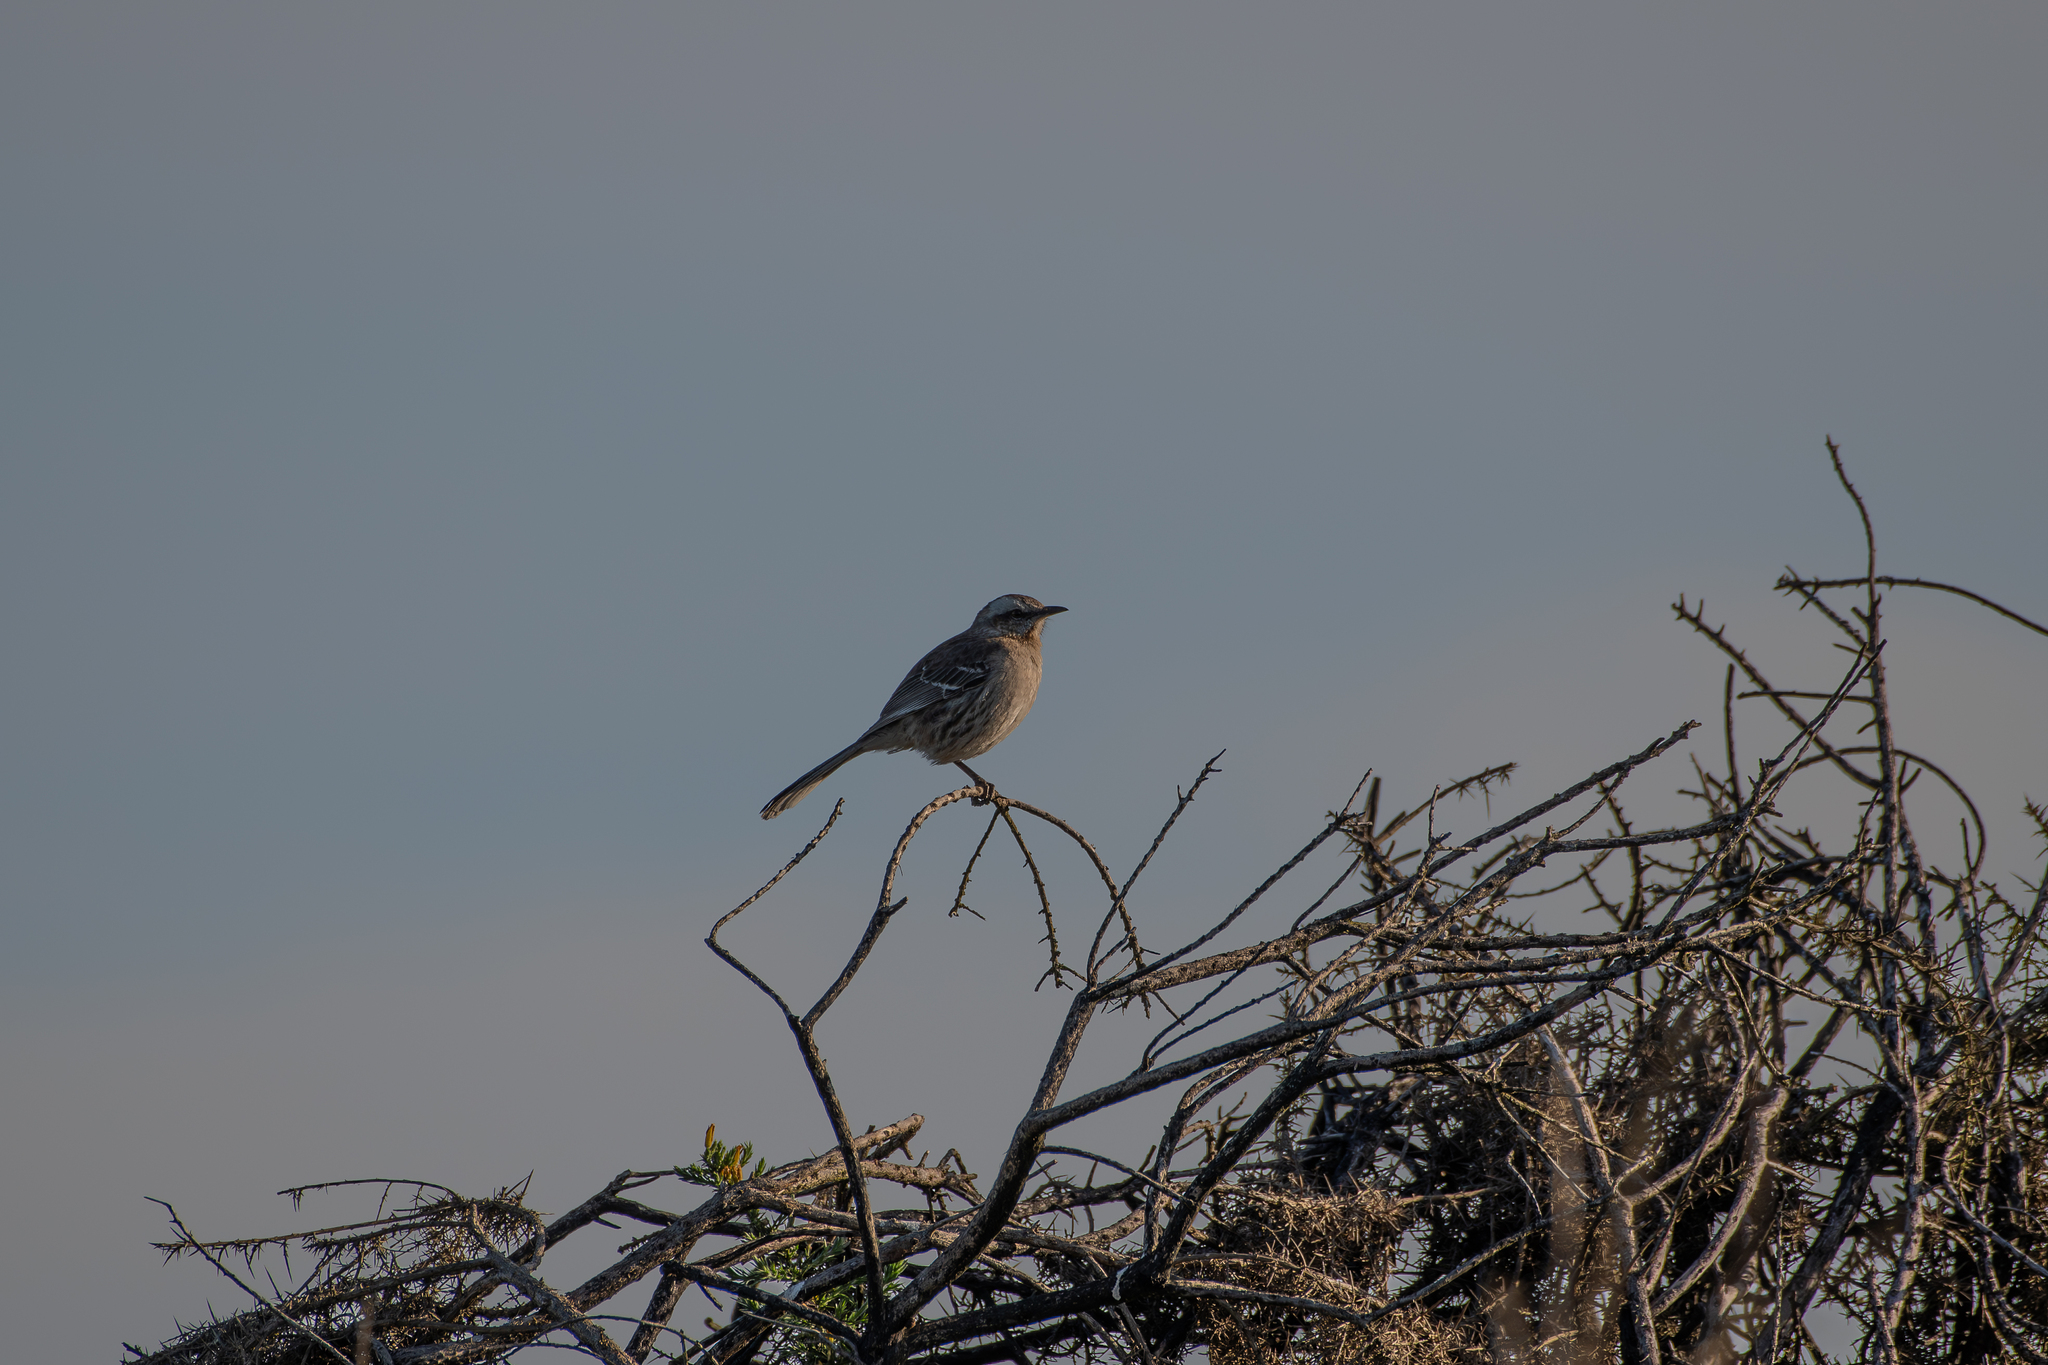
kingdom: Animalia
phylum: Chordata
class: Aves
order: Passeriformes
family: Mimidae
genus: Mimus
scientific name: Mimus thenca
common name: Chilean mockingbird
